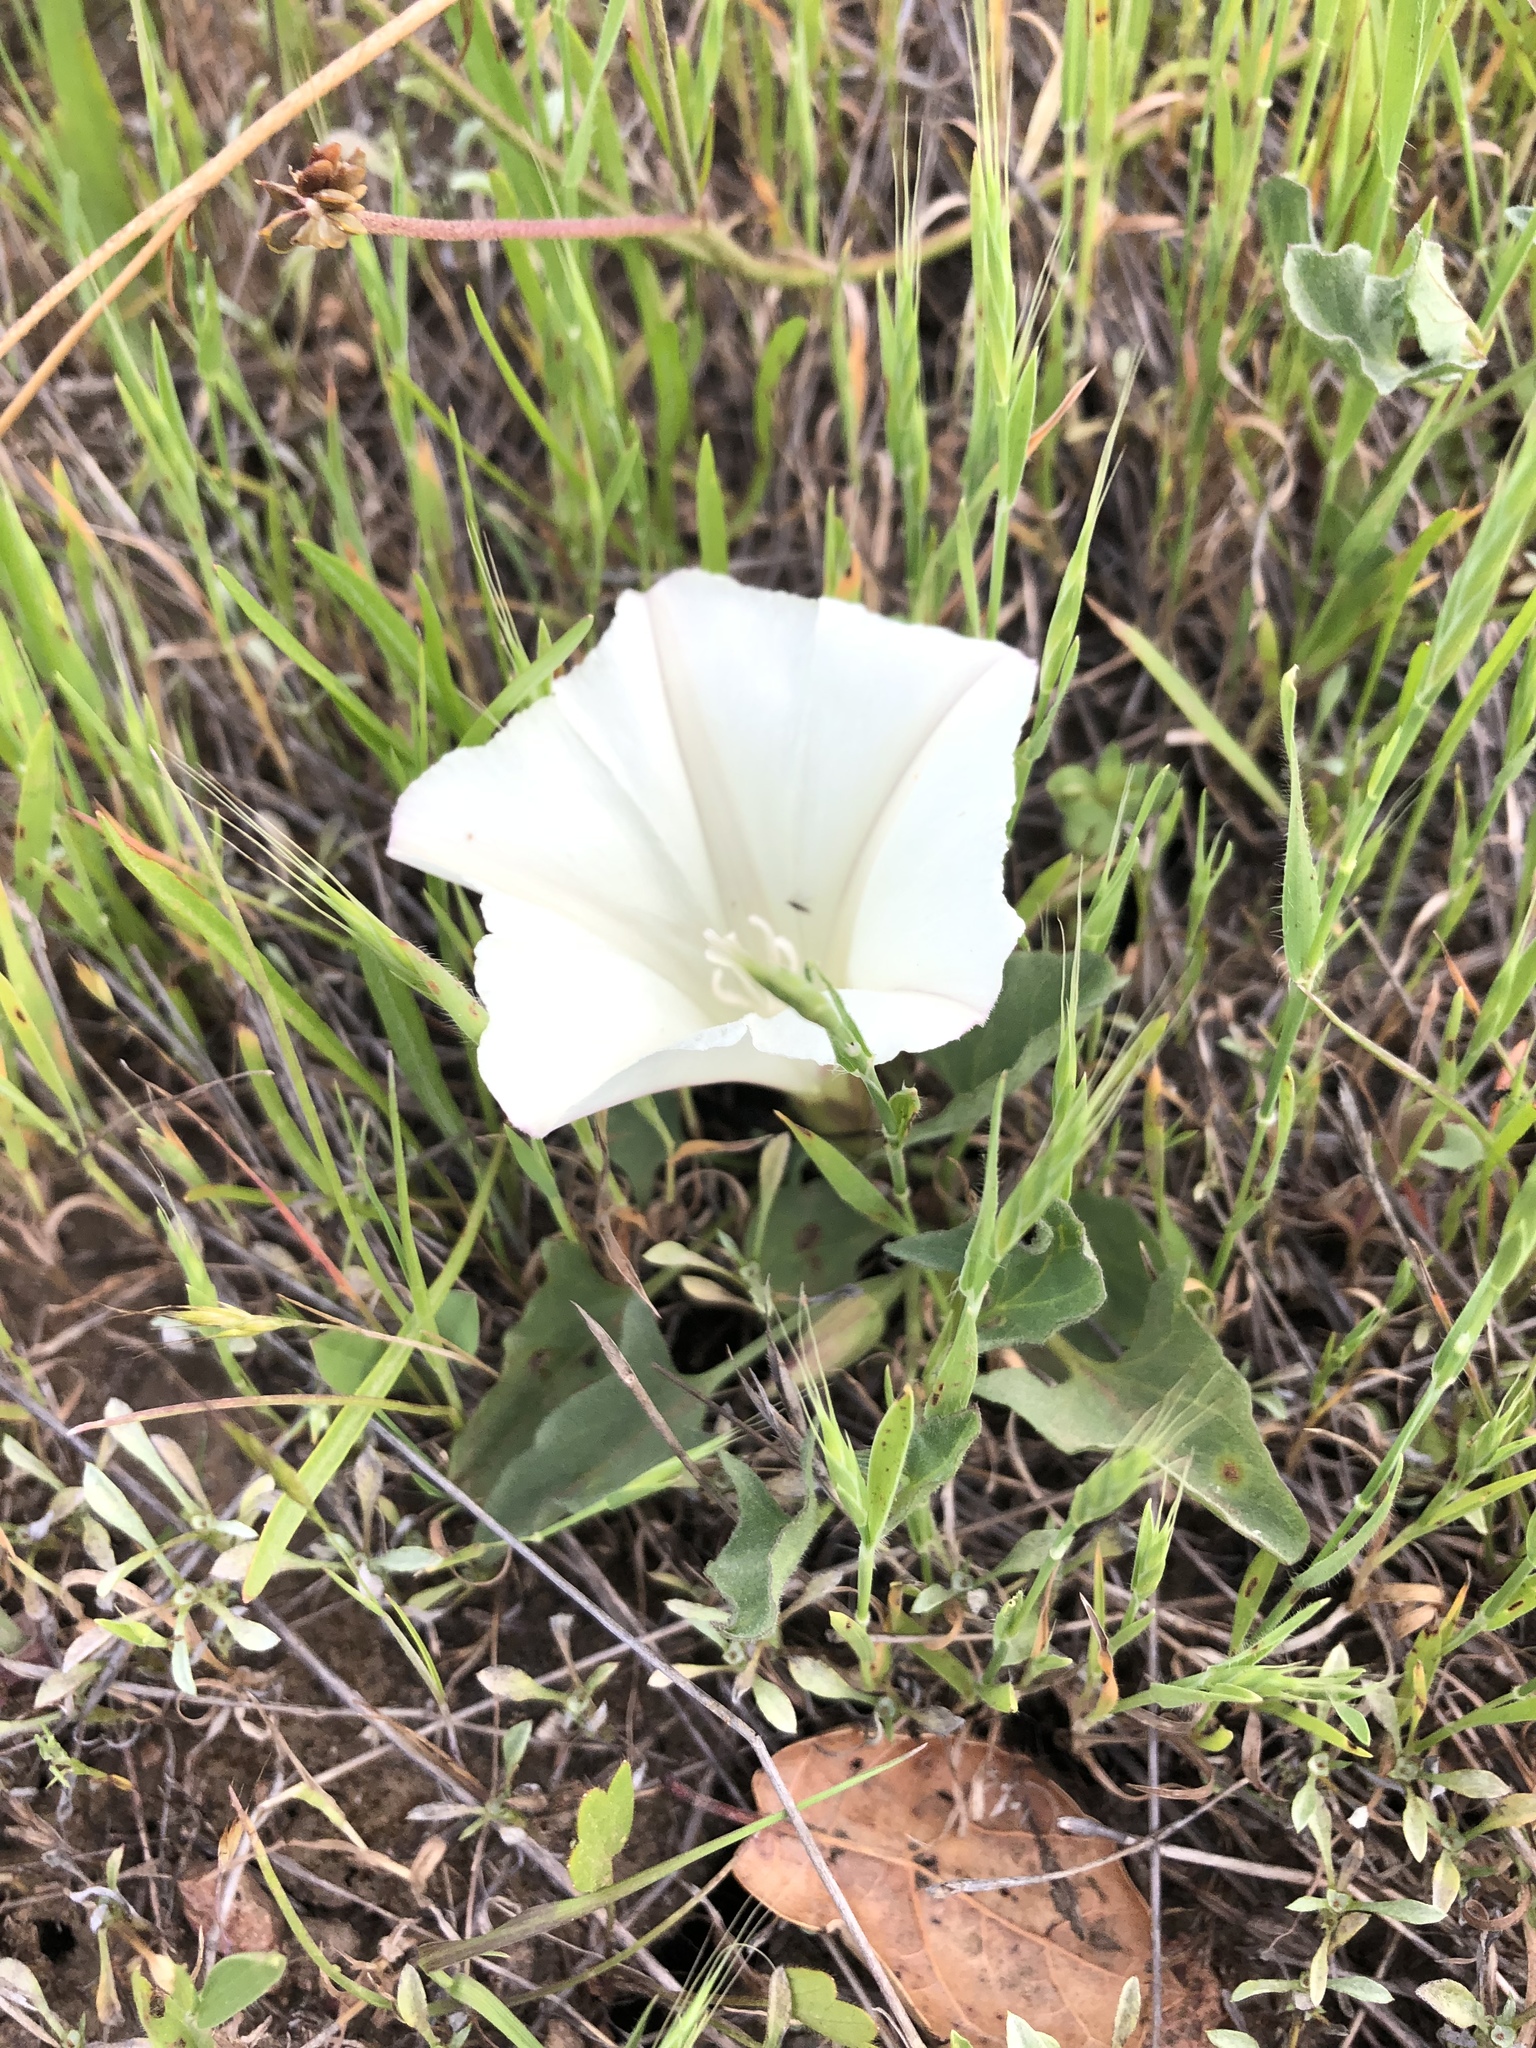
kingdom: Plantae
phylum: Tracheophyta
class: Magnoliopsida
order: Solanales
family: Convolvulaceae
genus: Calystegia
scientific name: Calystegia subacaulis
